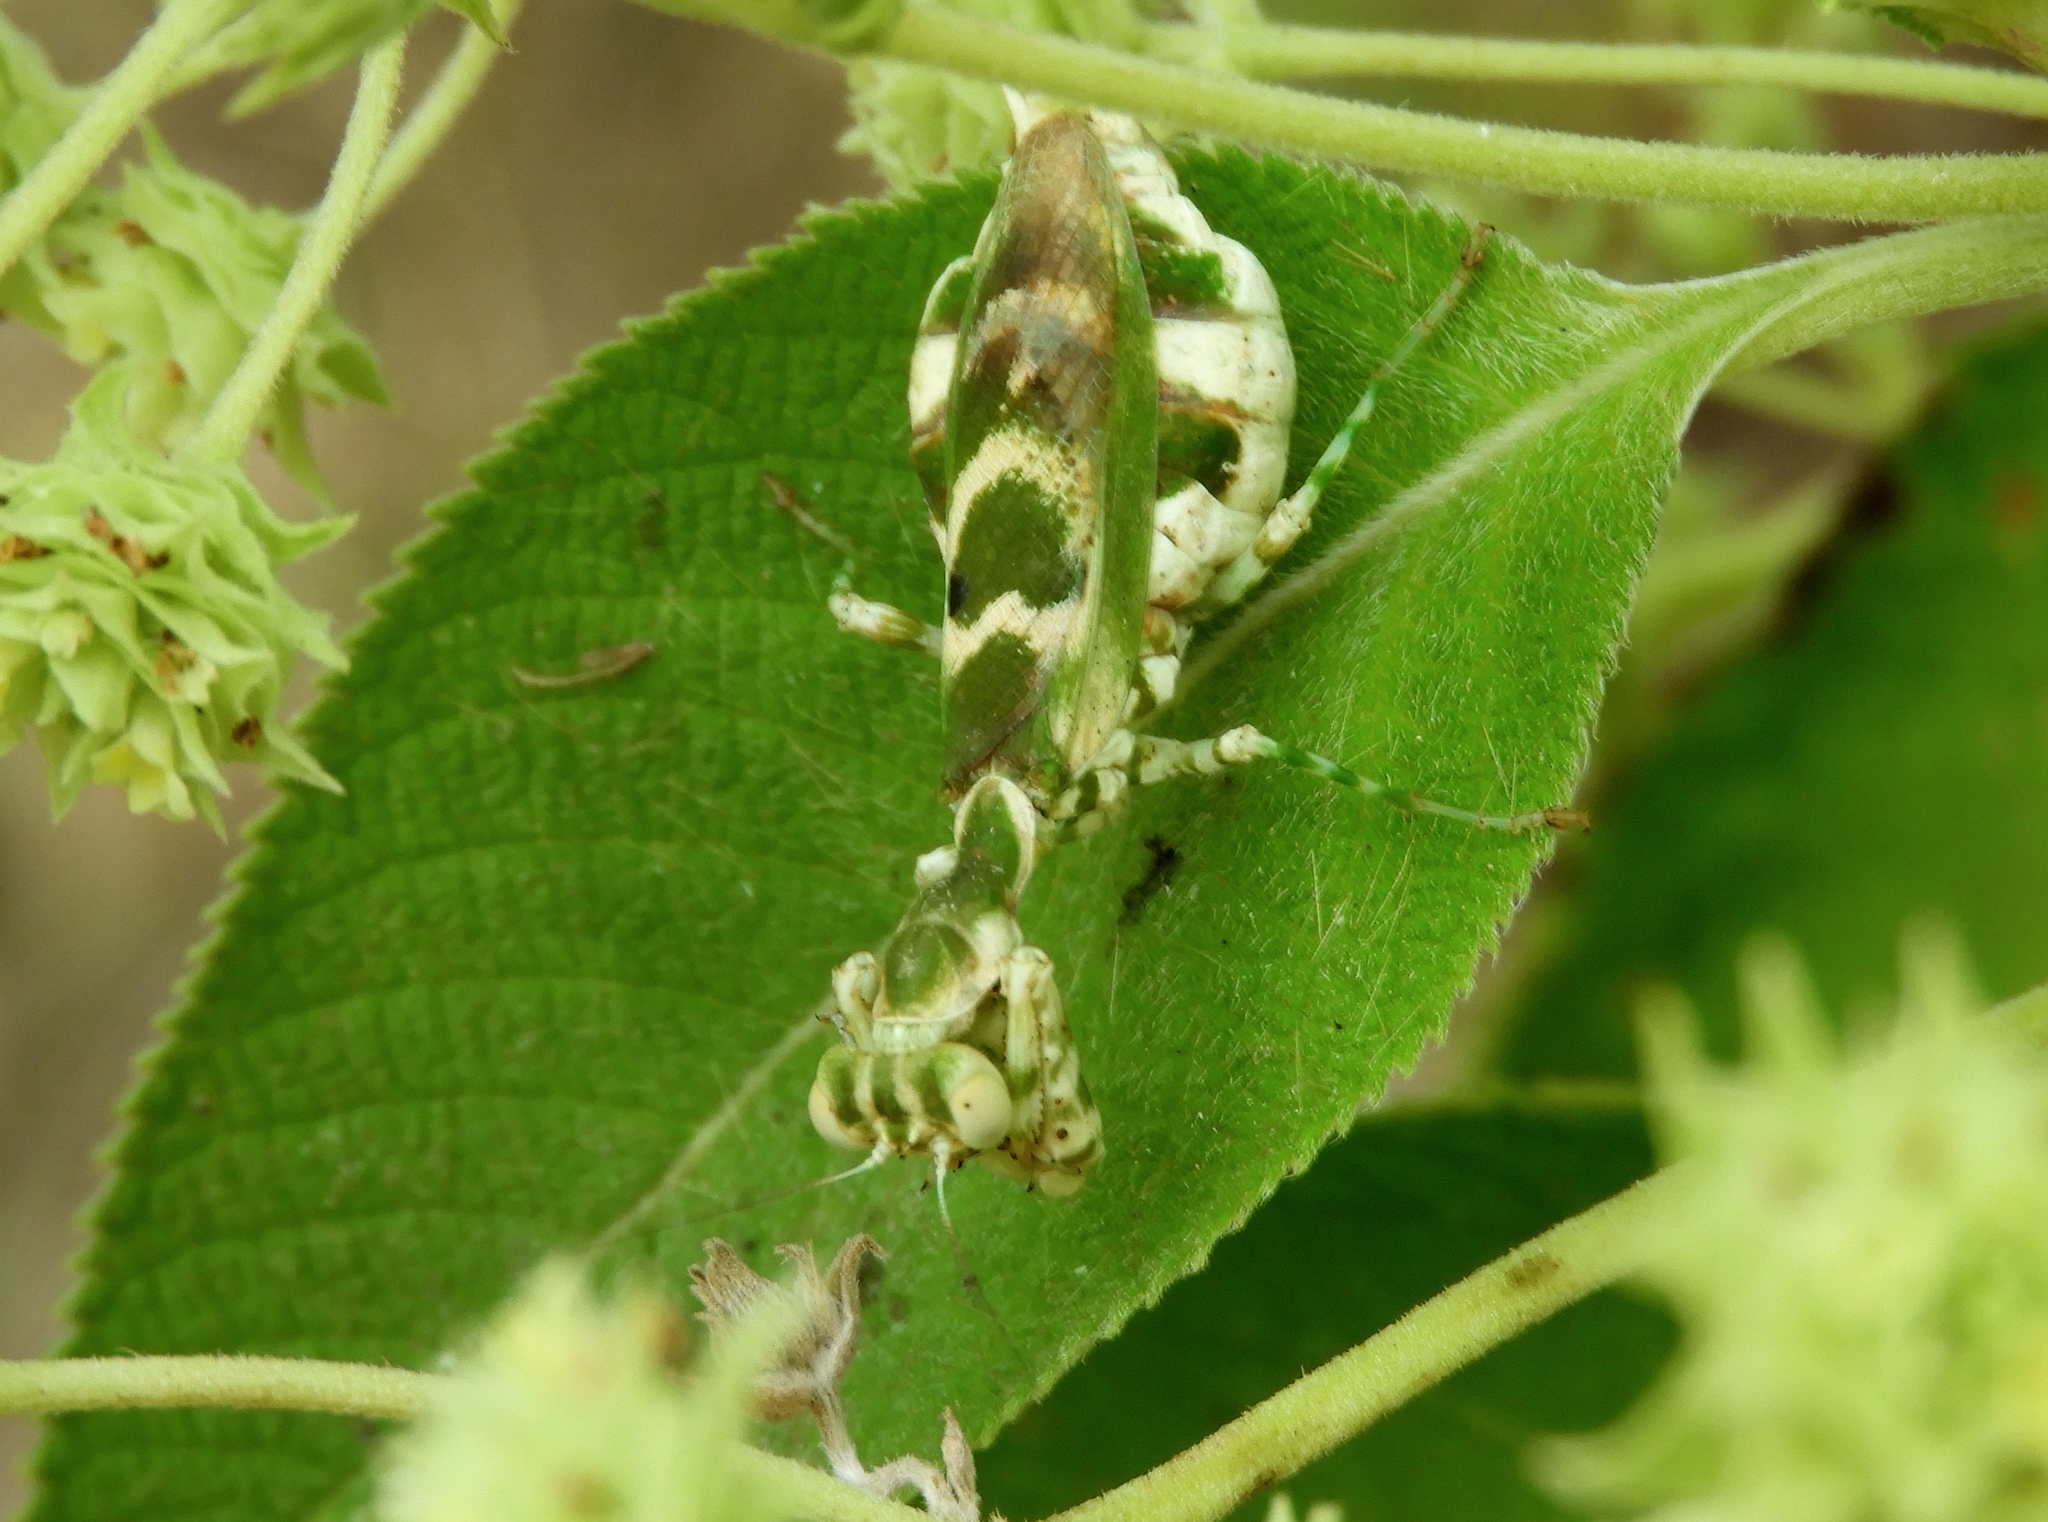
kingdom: Animalia
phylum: Arthropoda
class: Insecta
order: Mantodea
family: Acanthopidae
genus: Acontista
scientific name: Acontista mexicana
